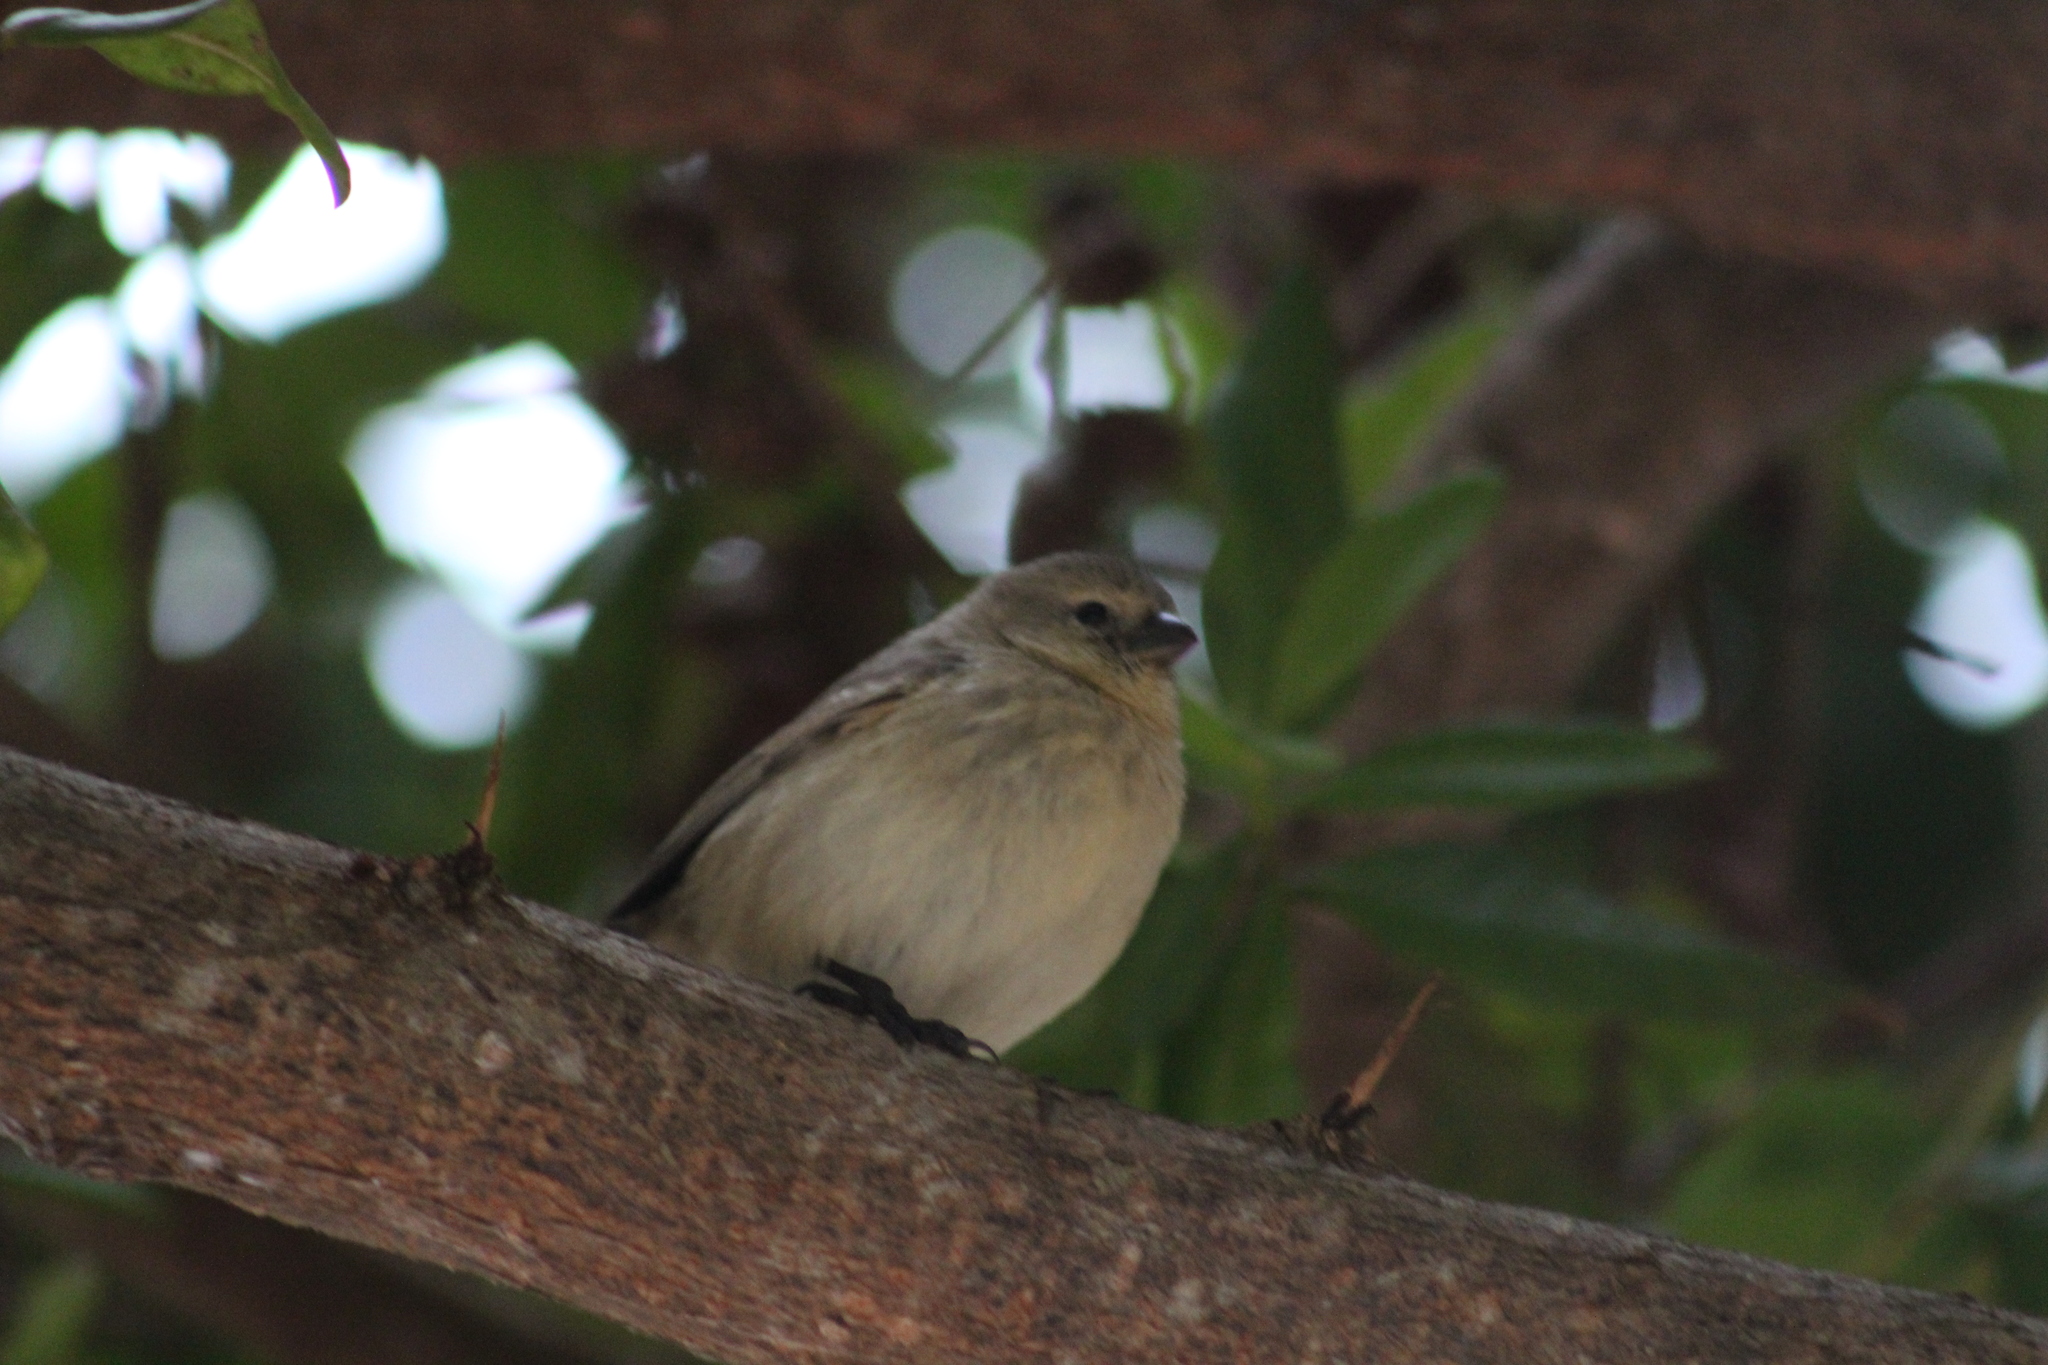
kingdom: Animalia
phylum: Chordata
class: Aves
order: Passeriformes
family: Thraupidae
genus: Camarhynchus
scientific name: Camarhynchus parvulus
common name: Small tree finch
